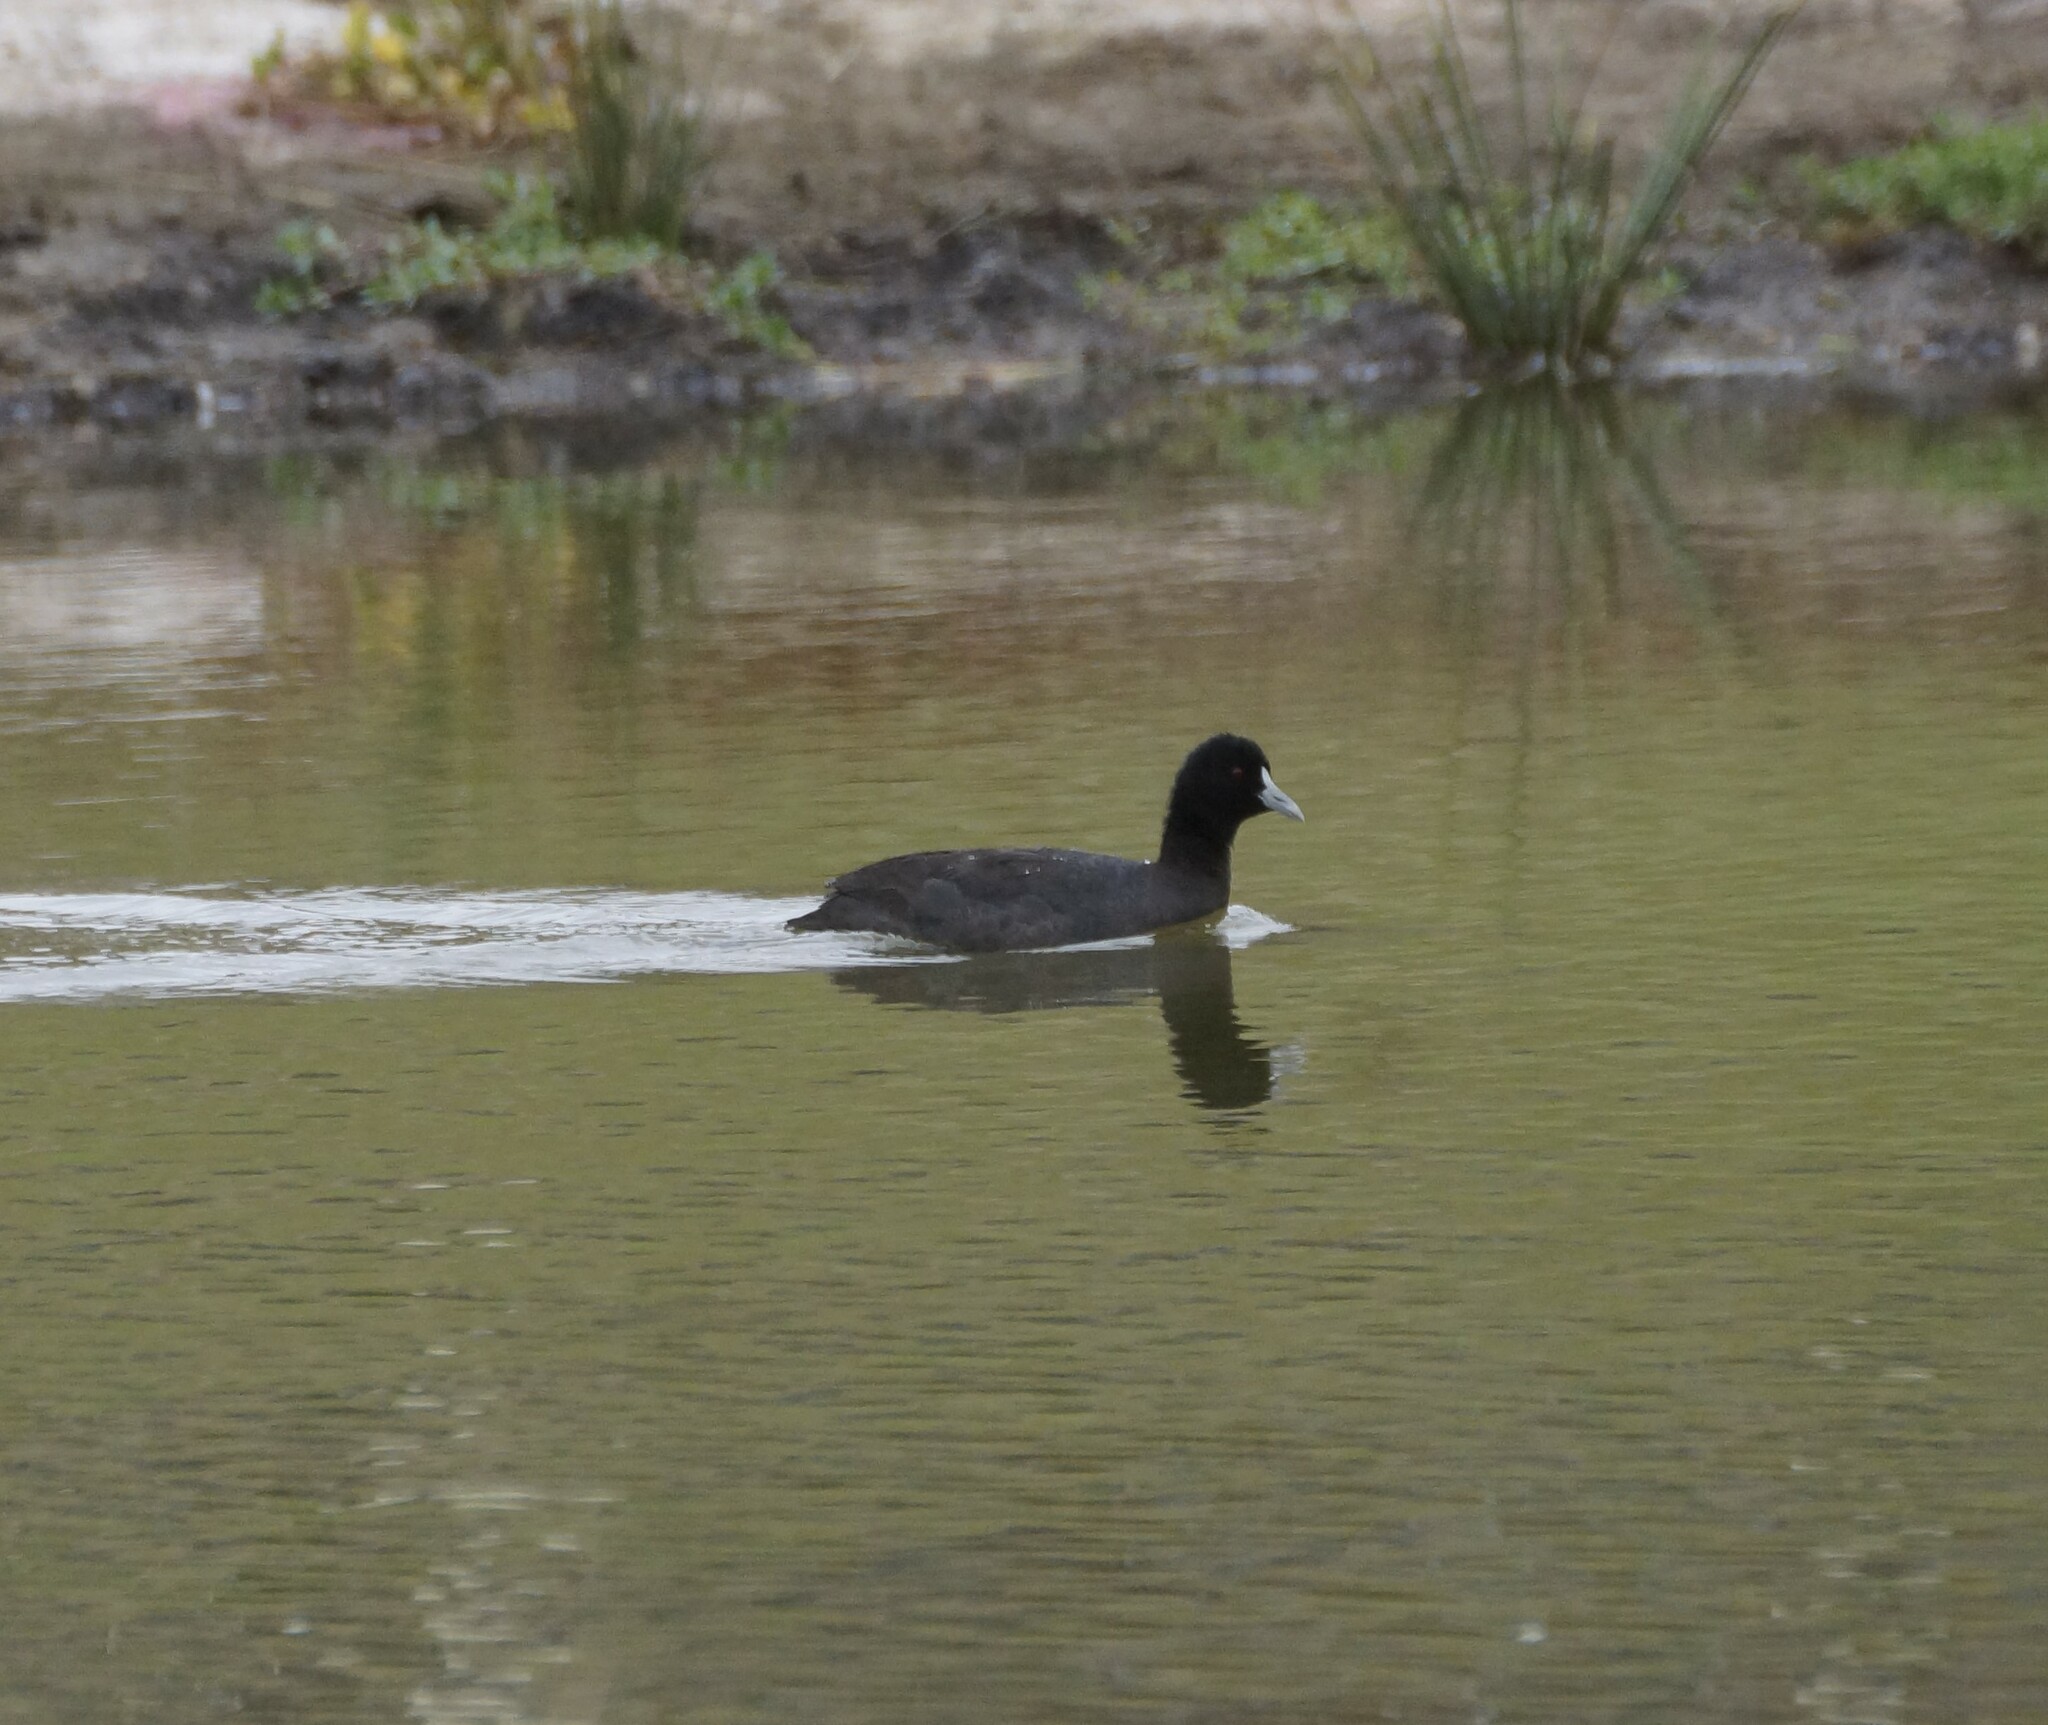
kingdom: Animalia
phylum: Chordata
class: Aves
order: Gruiformes
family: Rallidae
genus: Fulica
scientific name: Fulica atra
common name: Eurasian coot
